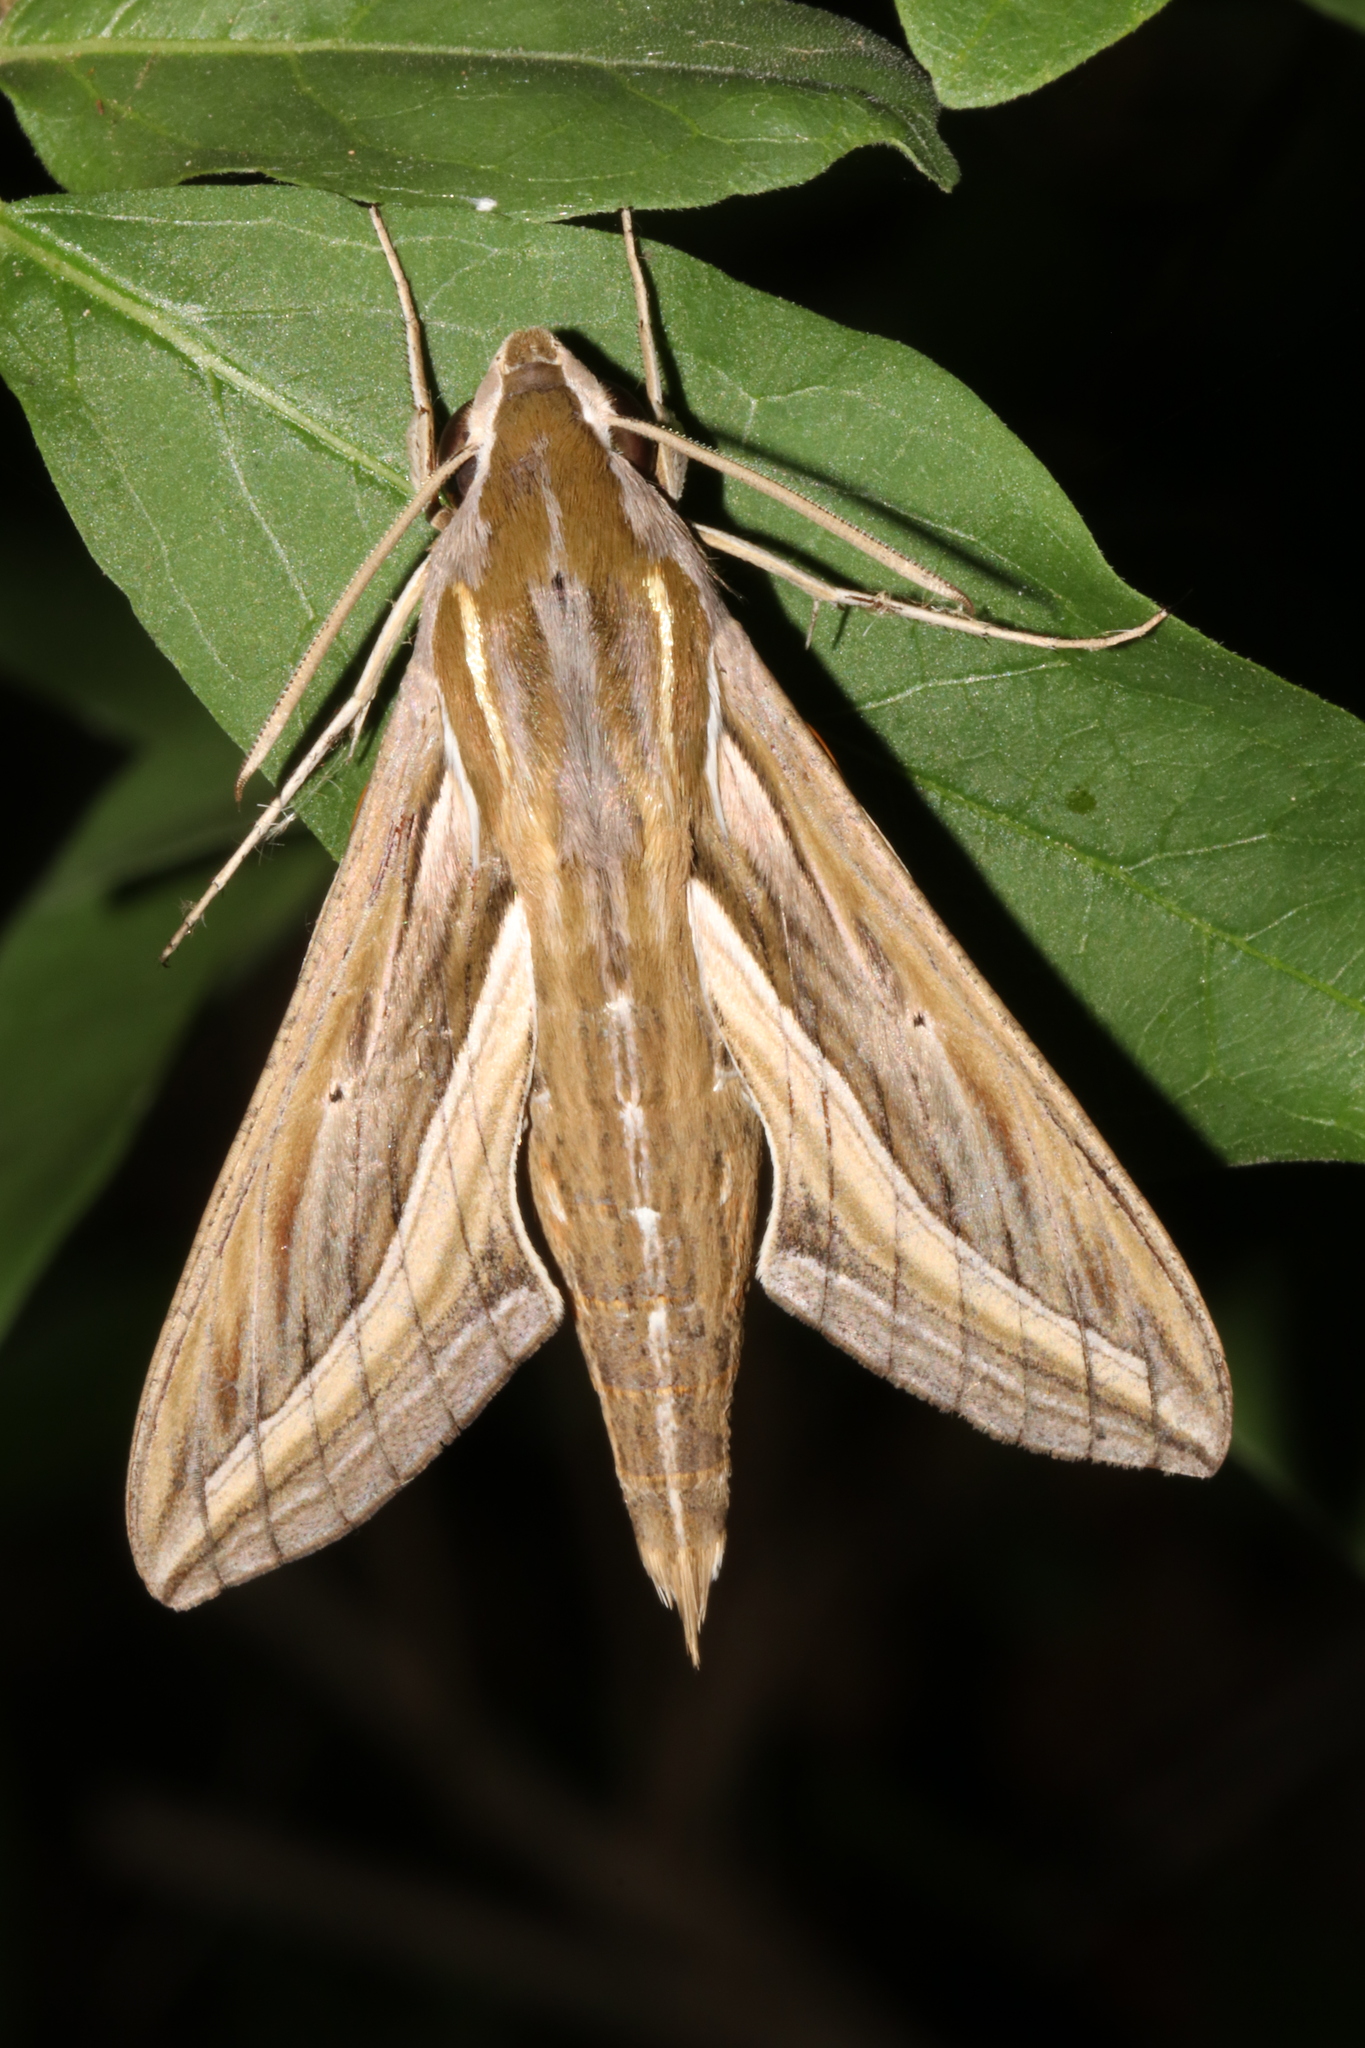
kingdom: Animalia
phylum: Arthropoda
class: Insecta
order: Lepidoptera
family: Sphingidae
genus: Hippotion
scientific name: Hippotion celerio
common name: Silver-striped hawk-moth
